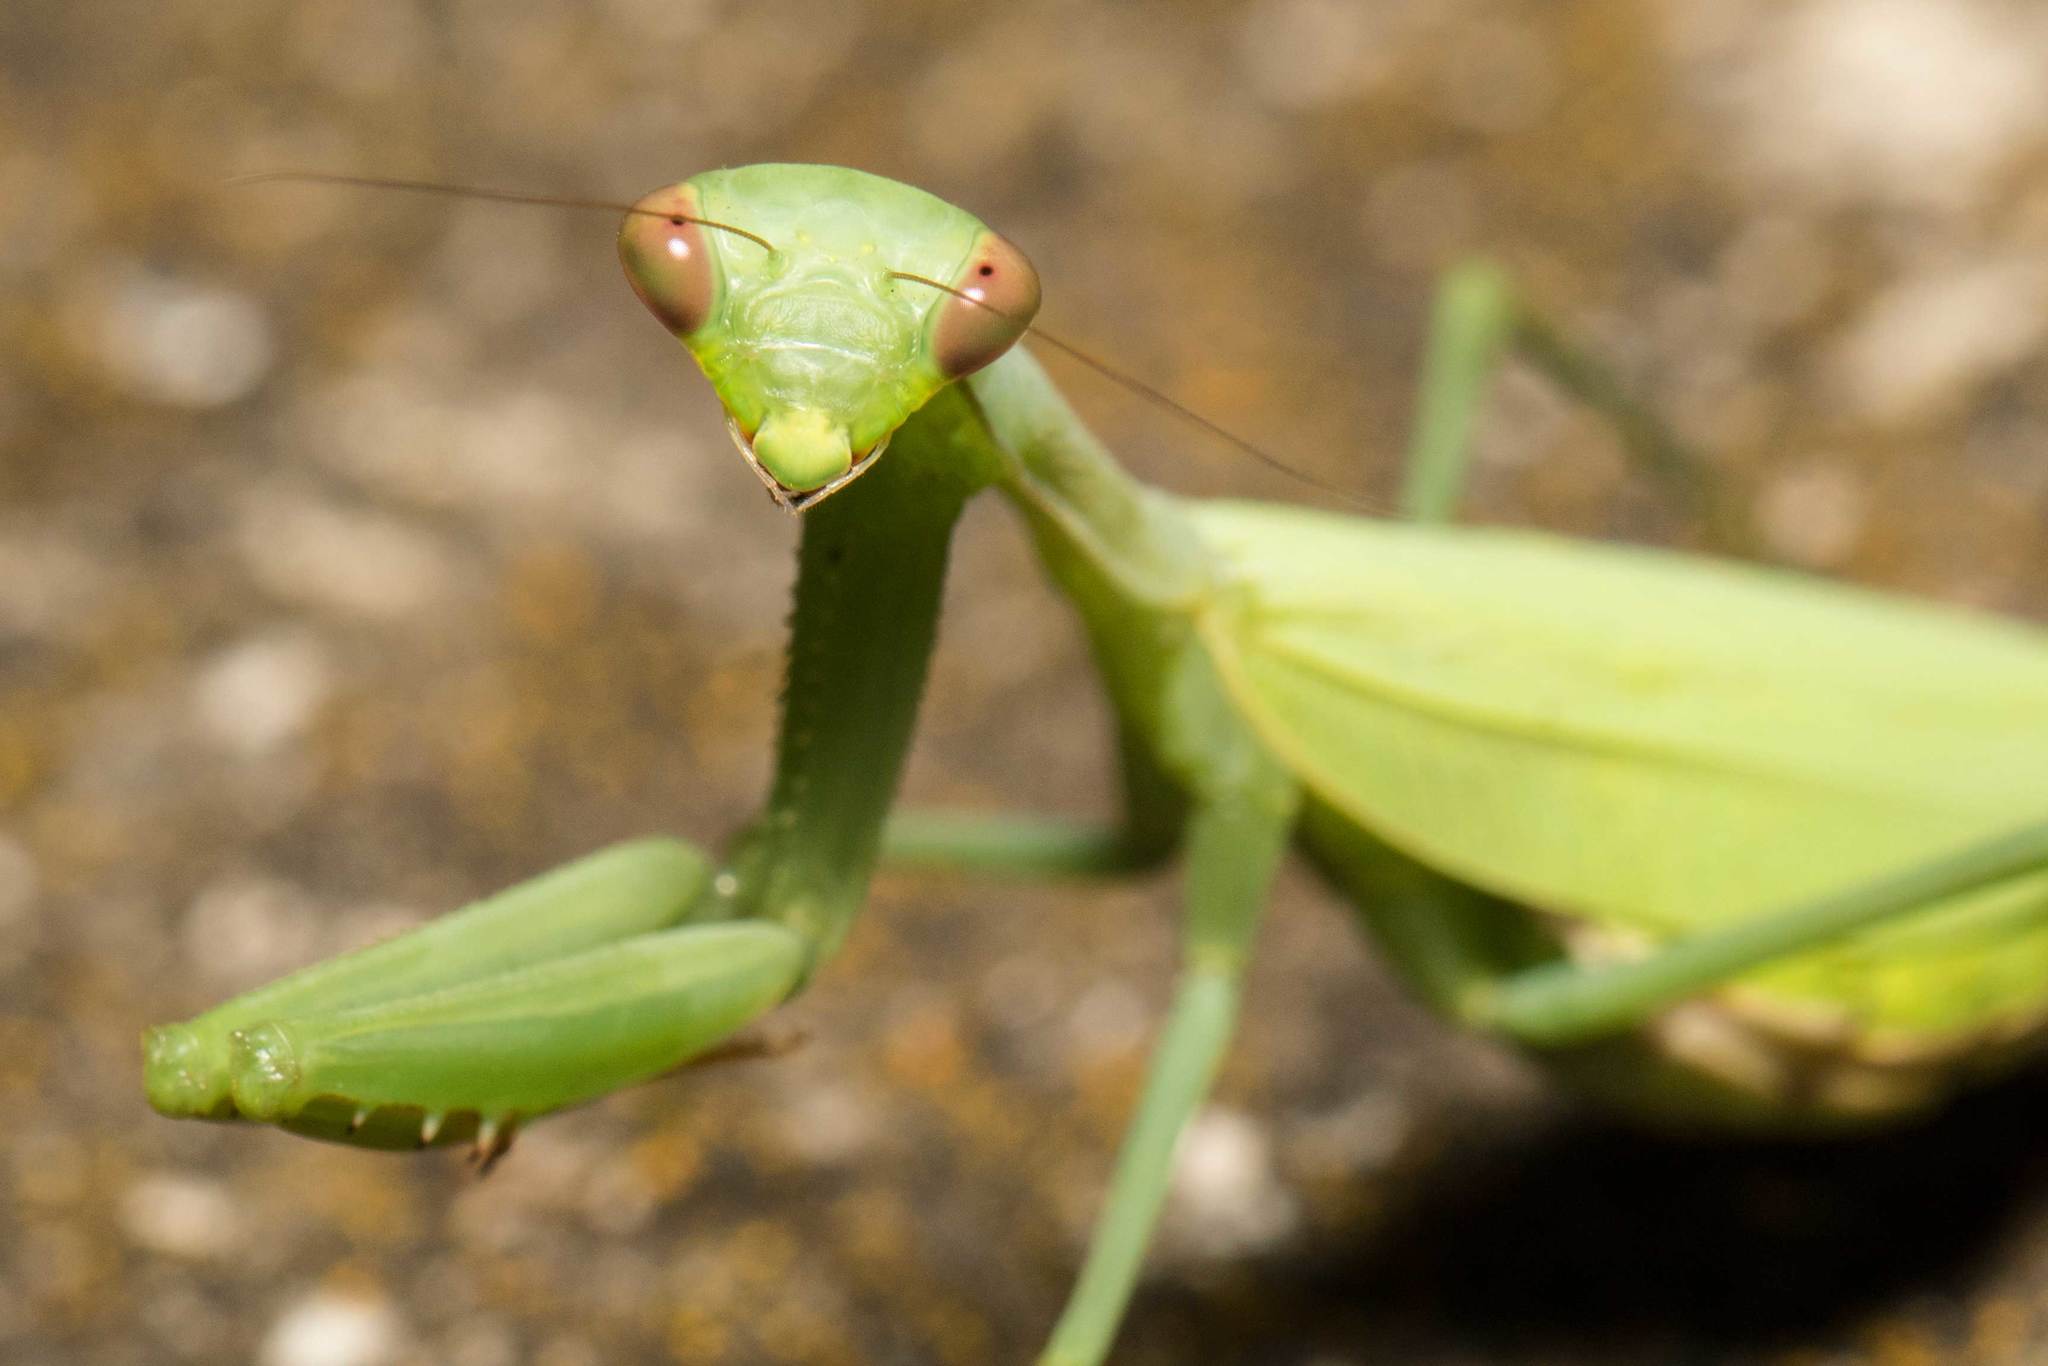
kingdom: Animalia
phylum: Arthropoda
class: Insecta
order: Mantodea
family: Miomantidae
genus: Miomantis
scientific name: Miomantis caffra
